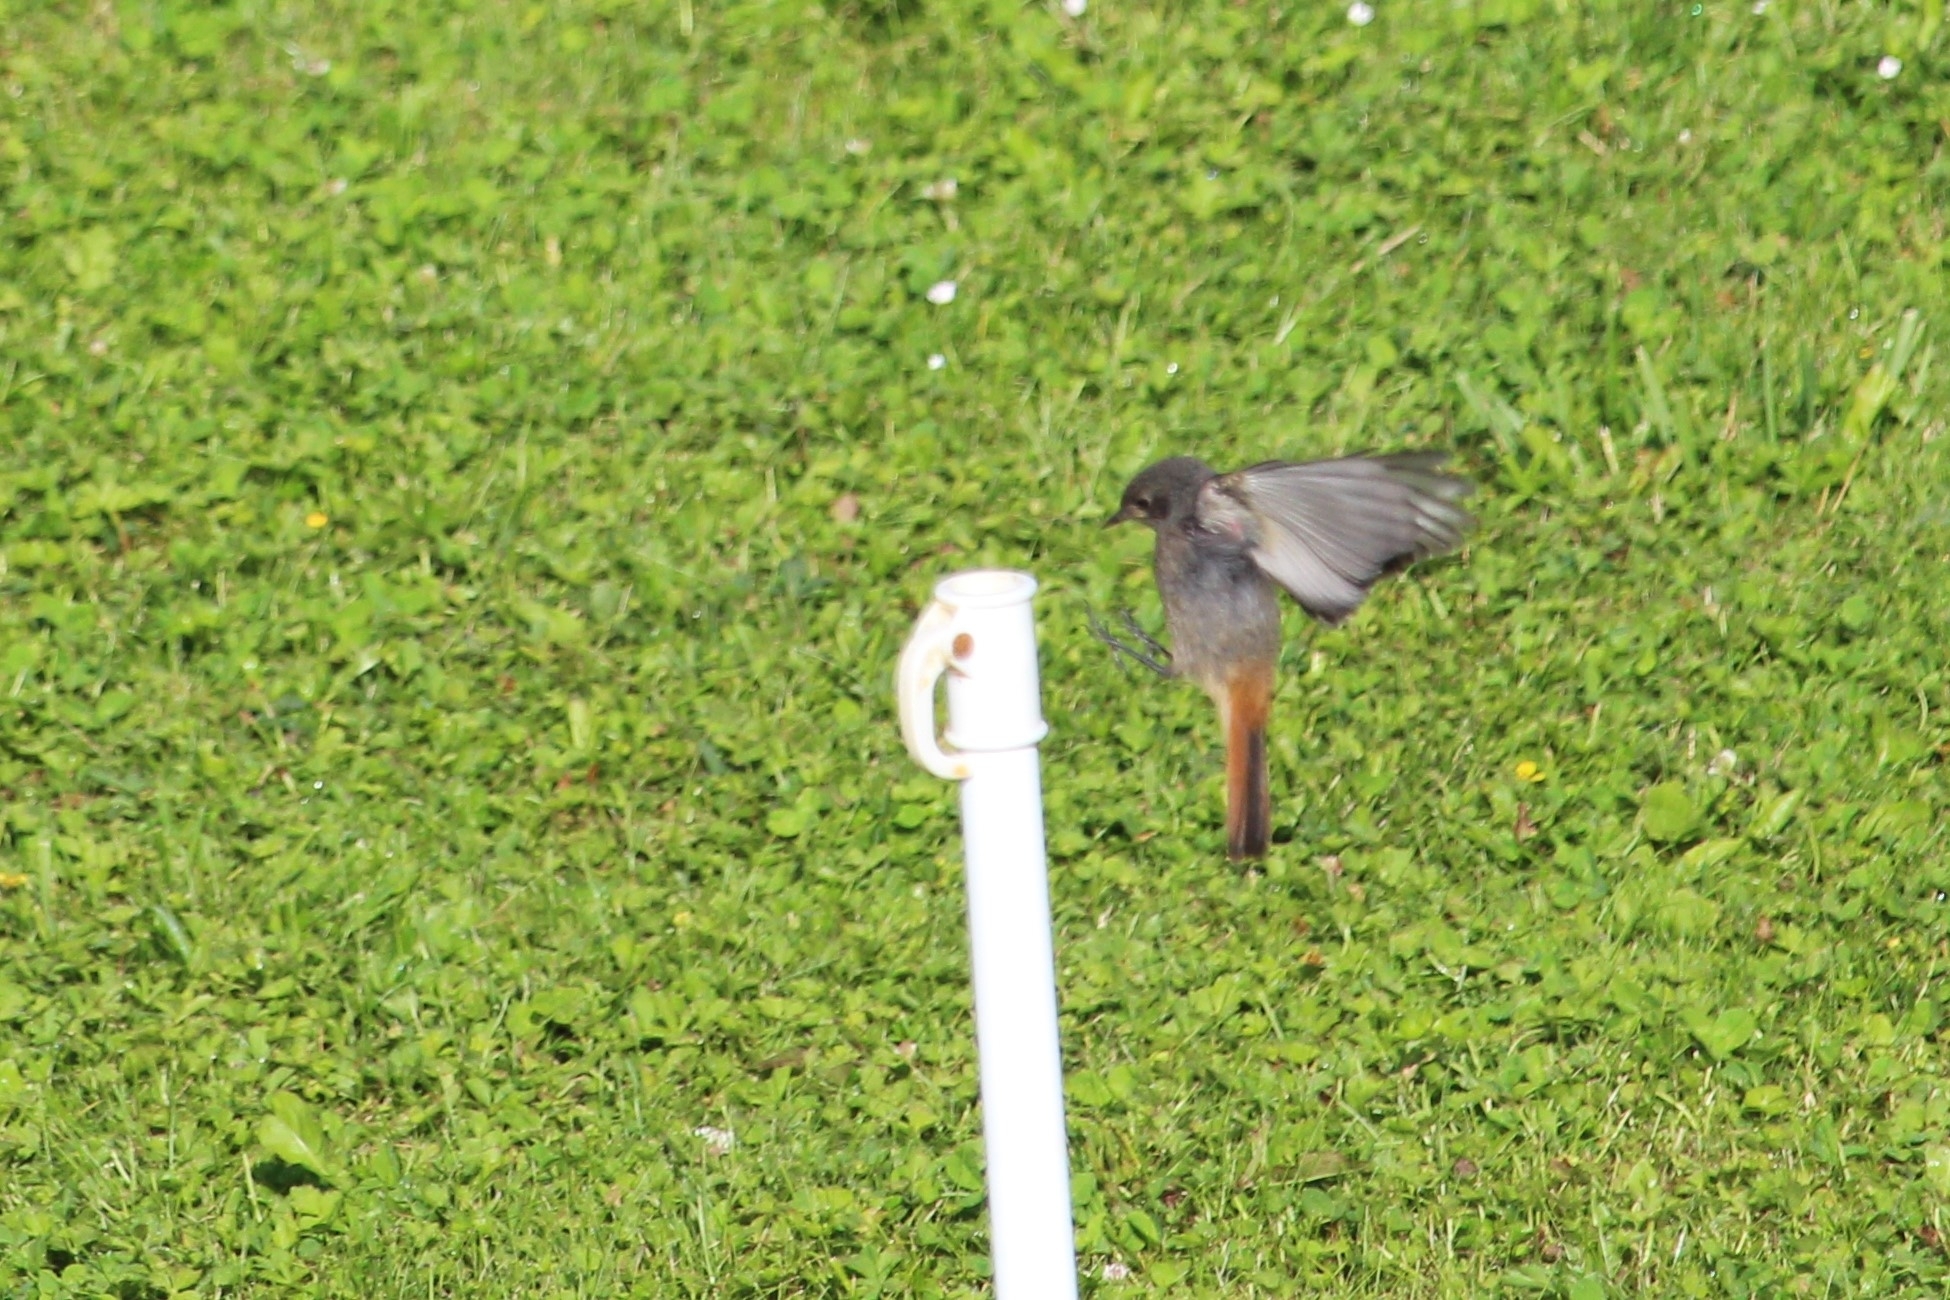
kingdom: Animalia
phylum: Chordata
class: Aves
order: Passeriformes
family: Muscicapidae
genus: Phoenicurus
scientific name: Phoenicurus ochruros
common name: Black redstart
